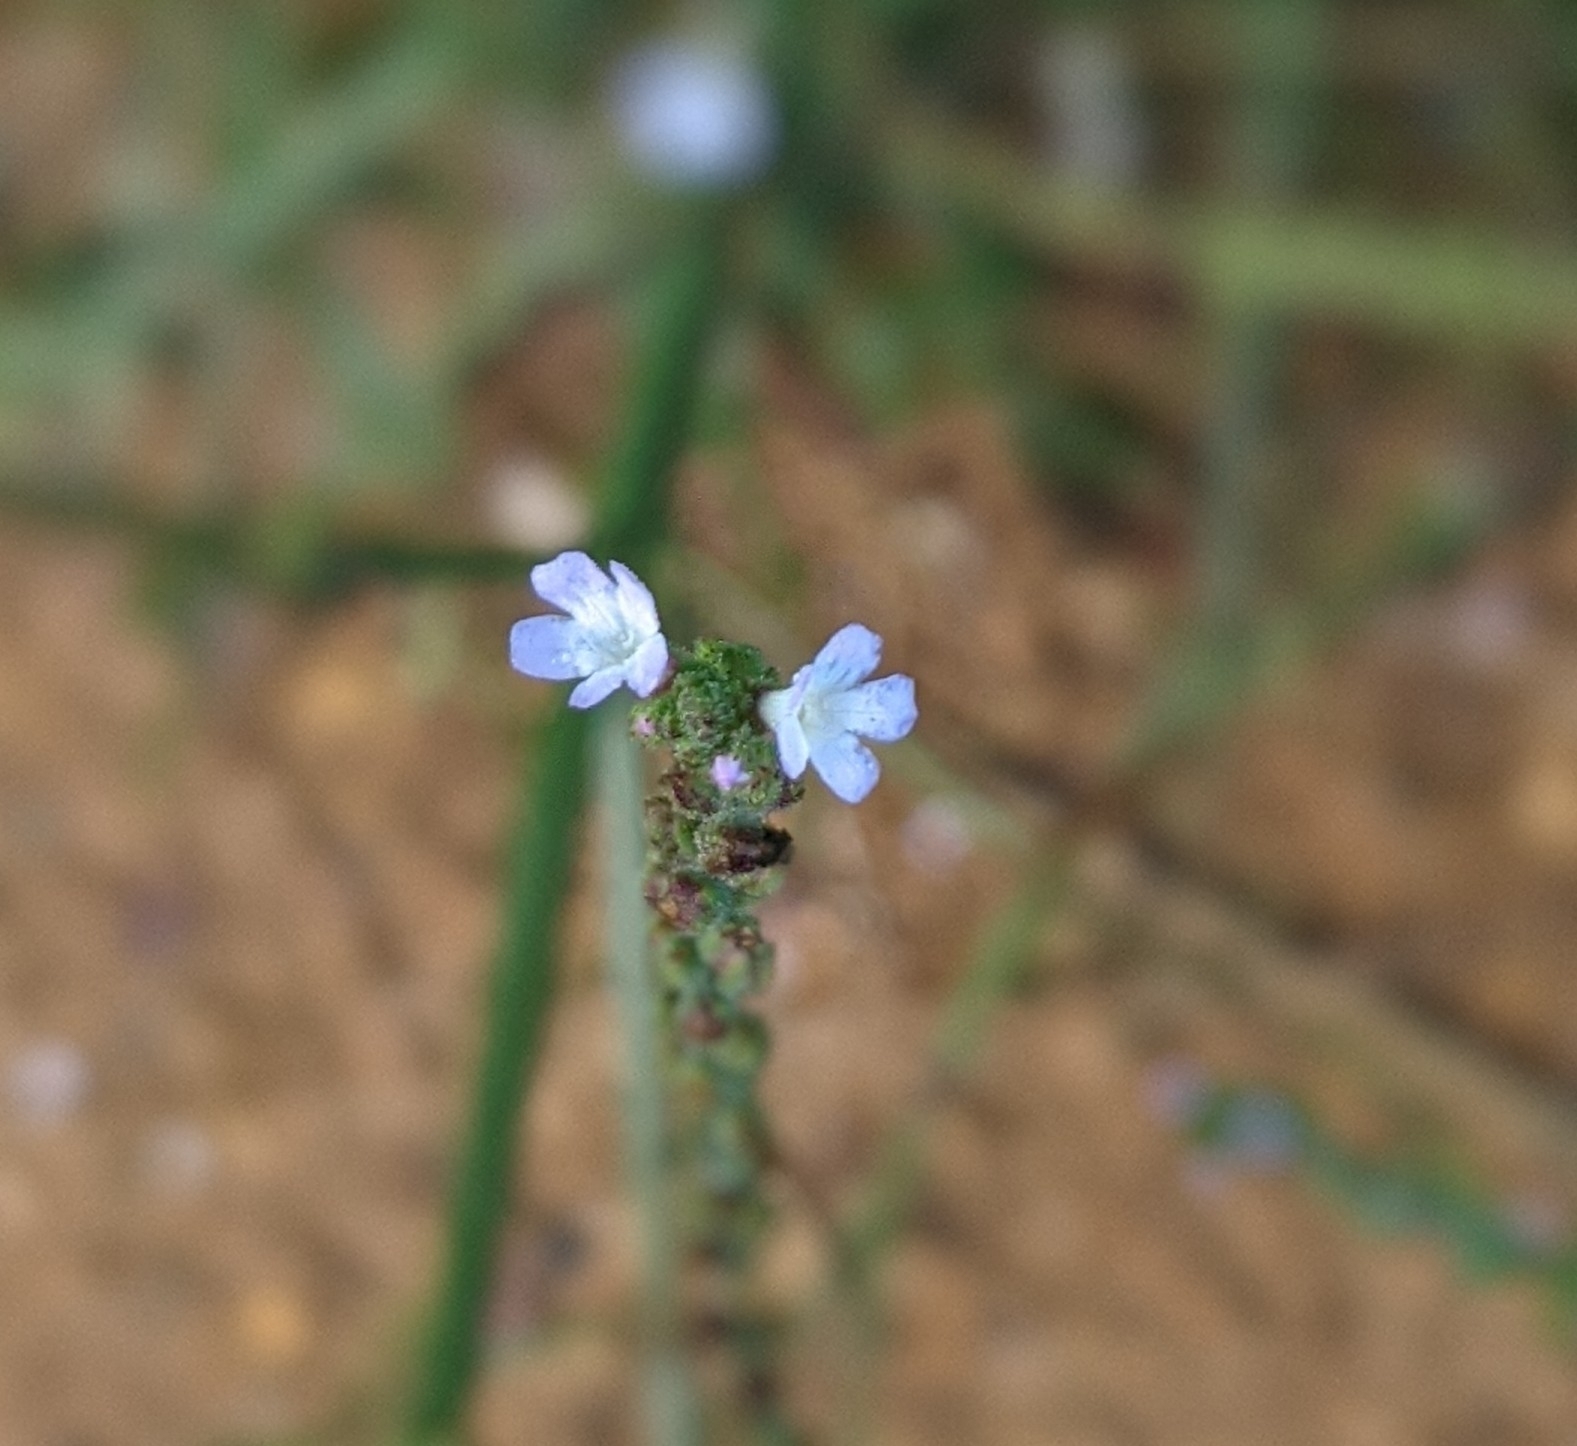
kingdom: Plantae
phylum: Tracheophyta
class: Magnoliopsida
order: Lamiales
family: Verbenaceae
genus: Verbena
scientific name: Verbena officinalis
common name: Vervain
